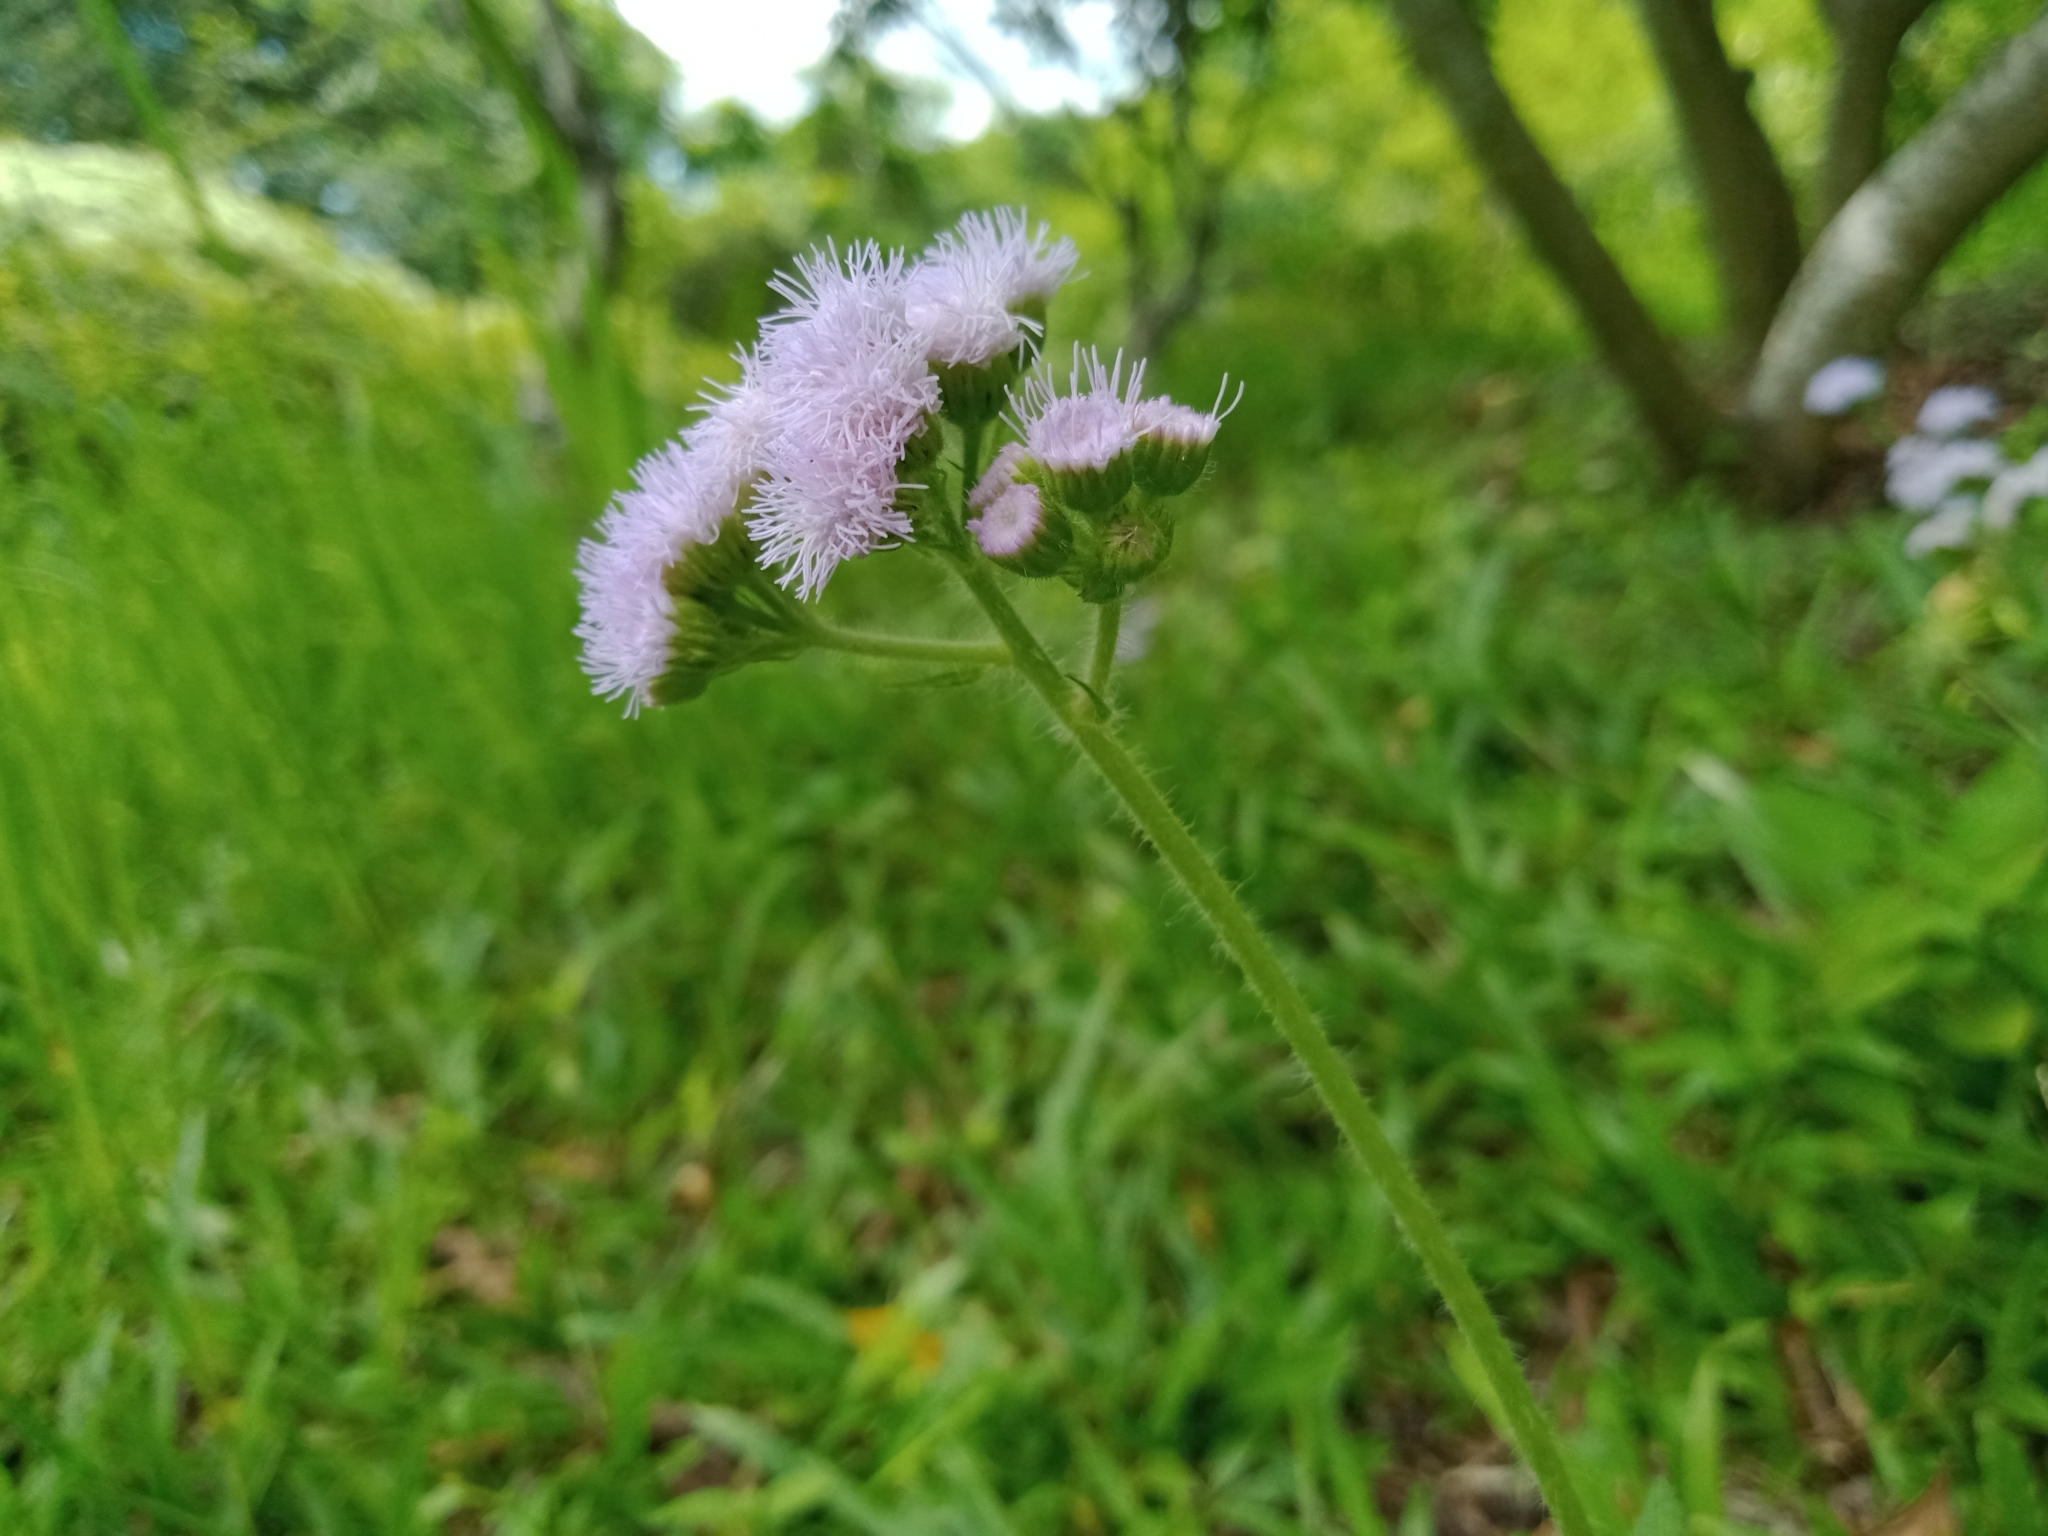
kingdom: Plantae
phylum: Tracheophyta
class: Magnoliopsida
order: Asterales
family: Asteraceae
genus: Ageratum
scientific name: Ageratum houstonianum
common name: Bluemink
